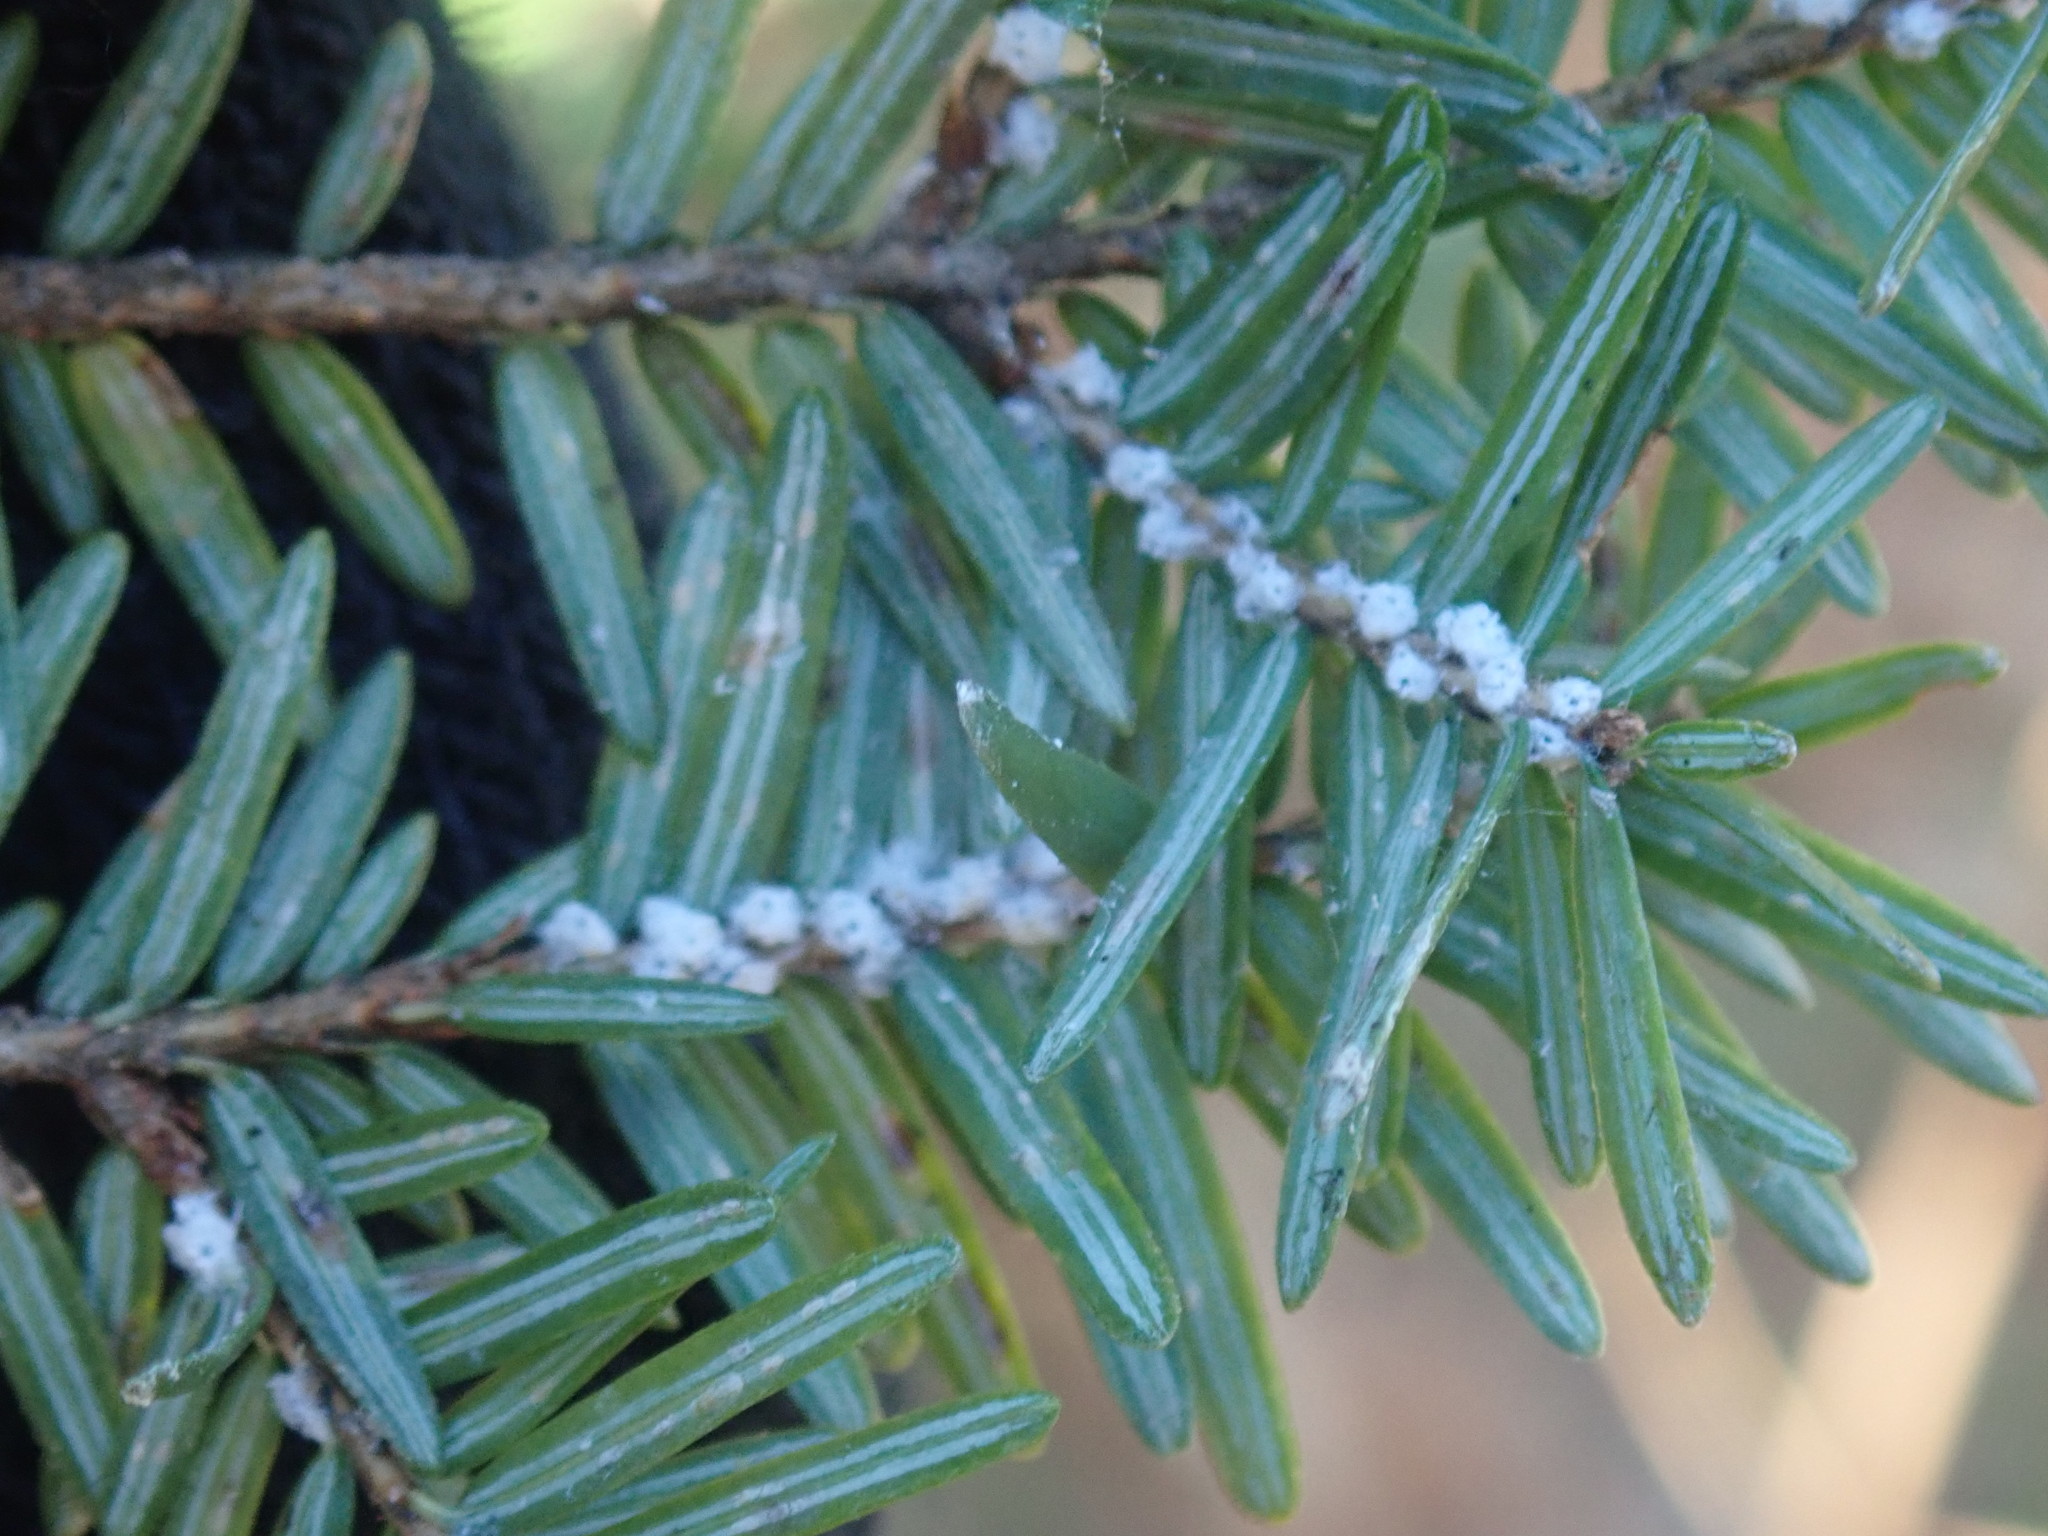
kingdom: Animalia
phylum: Arthropoda
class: Insecta
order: Hemiptera
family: Adelgidae
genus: Adelges
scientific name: Adelges tsugae
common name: Hemlock woolly adelgid
